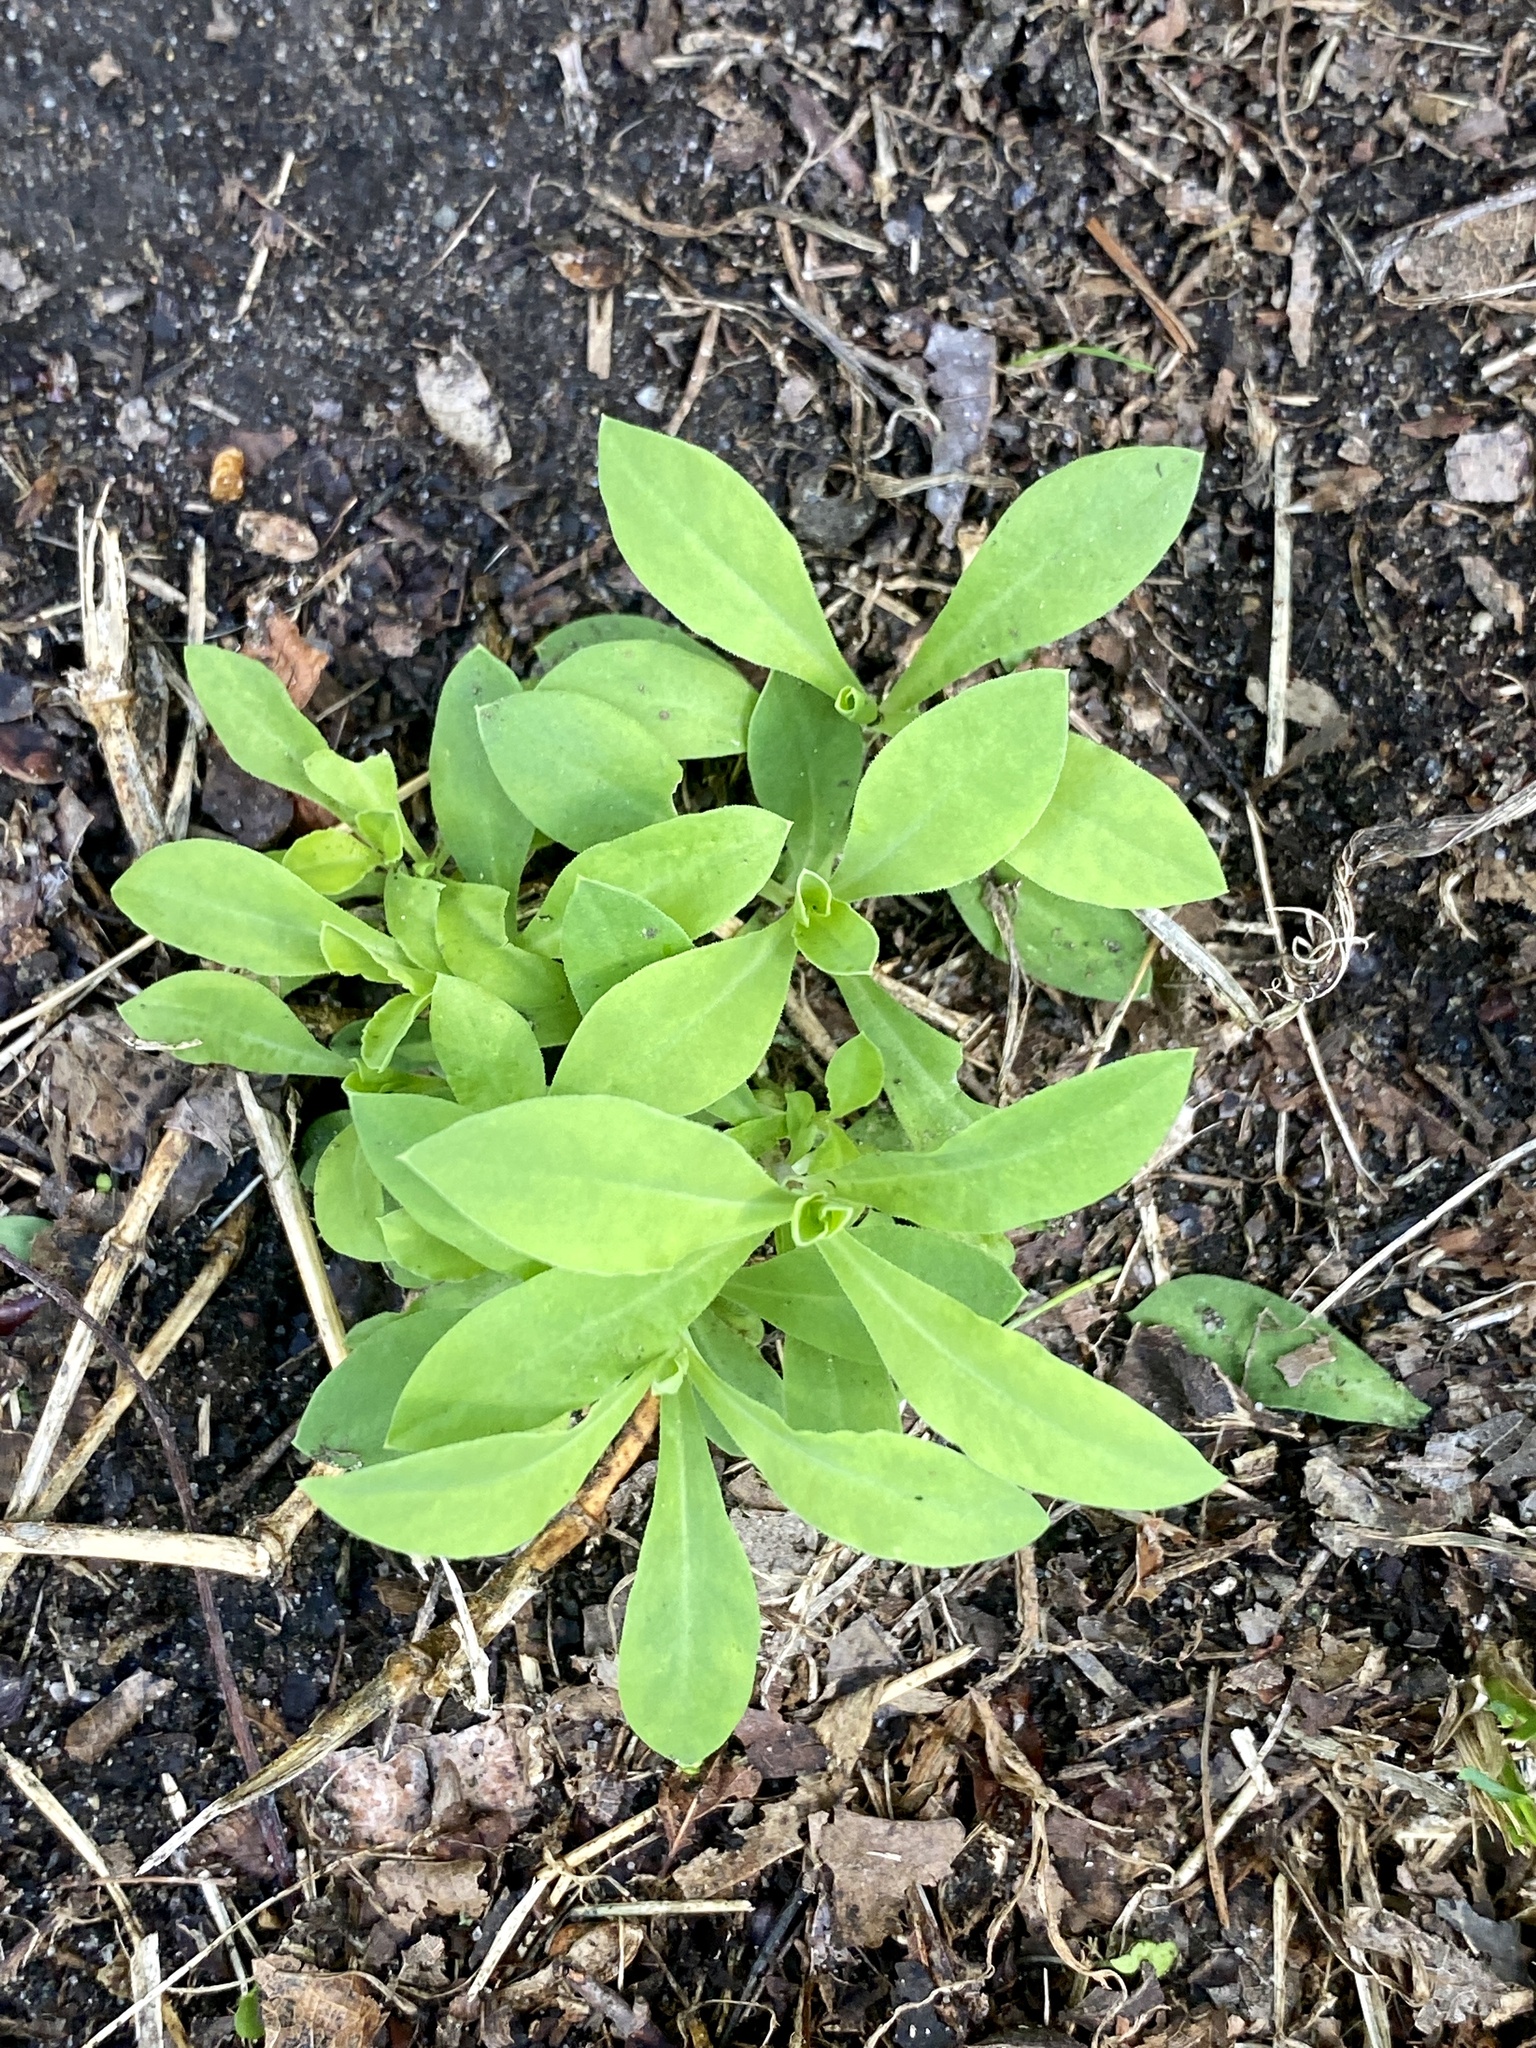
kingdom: Plantae
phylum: Tracheophyta
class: Magnoliopsida
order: Caryophyllales
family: Caryophyllaceae
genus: Silene
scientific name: Silene vulgaris
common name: Bladder campion
